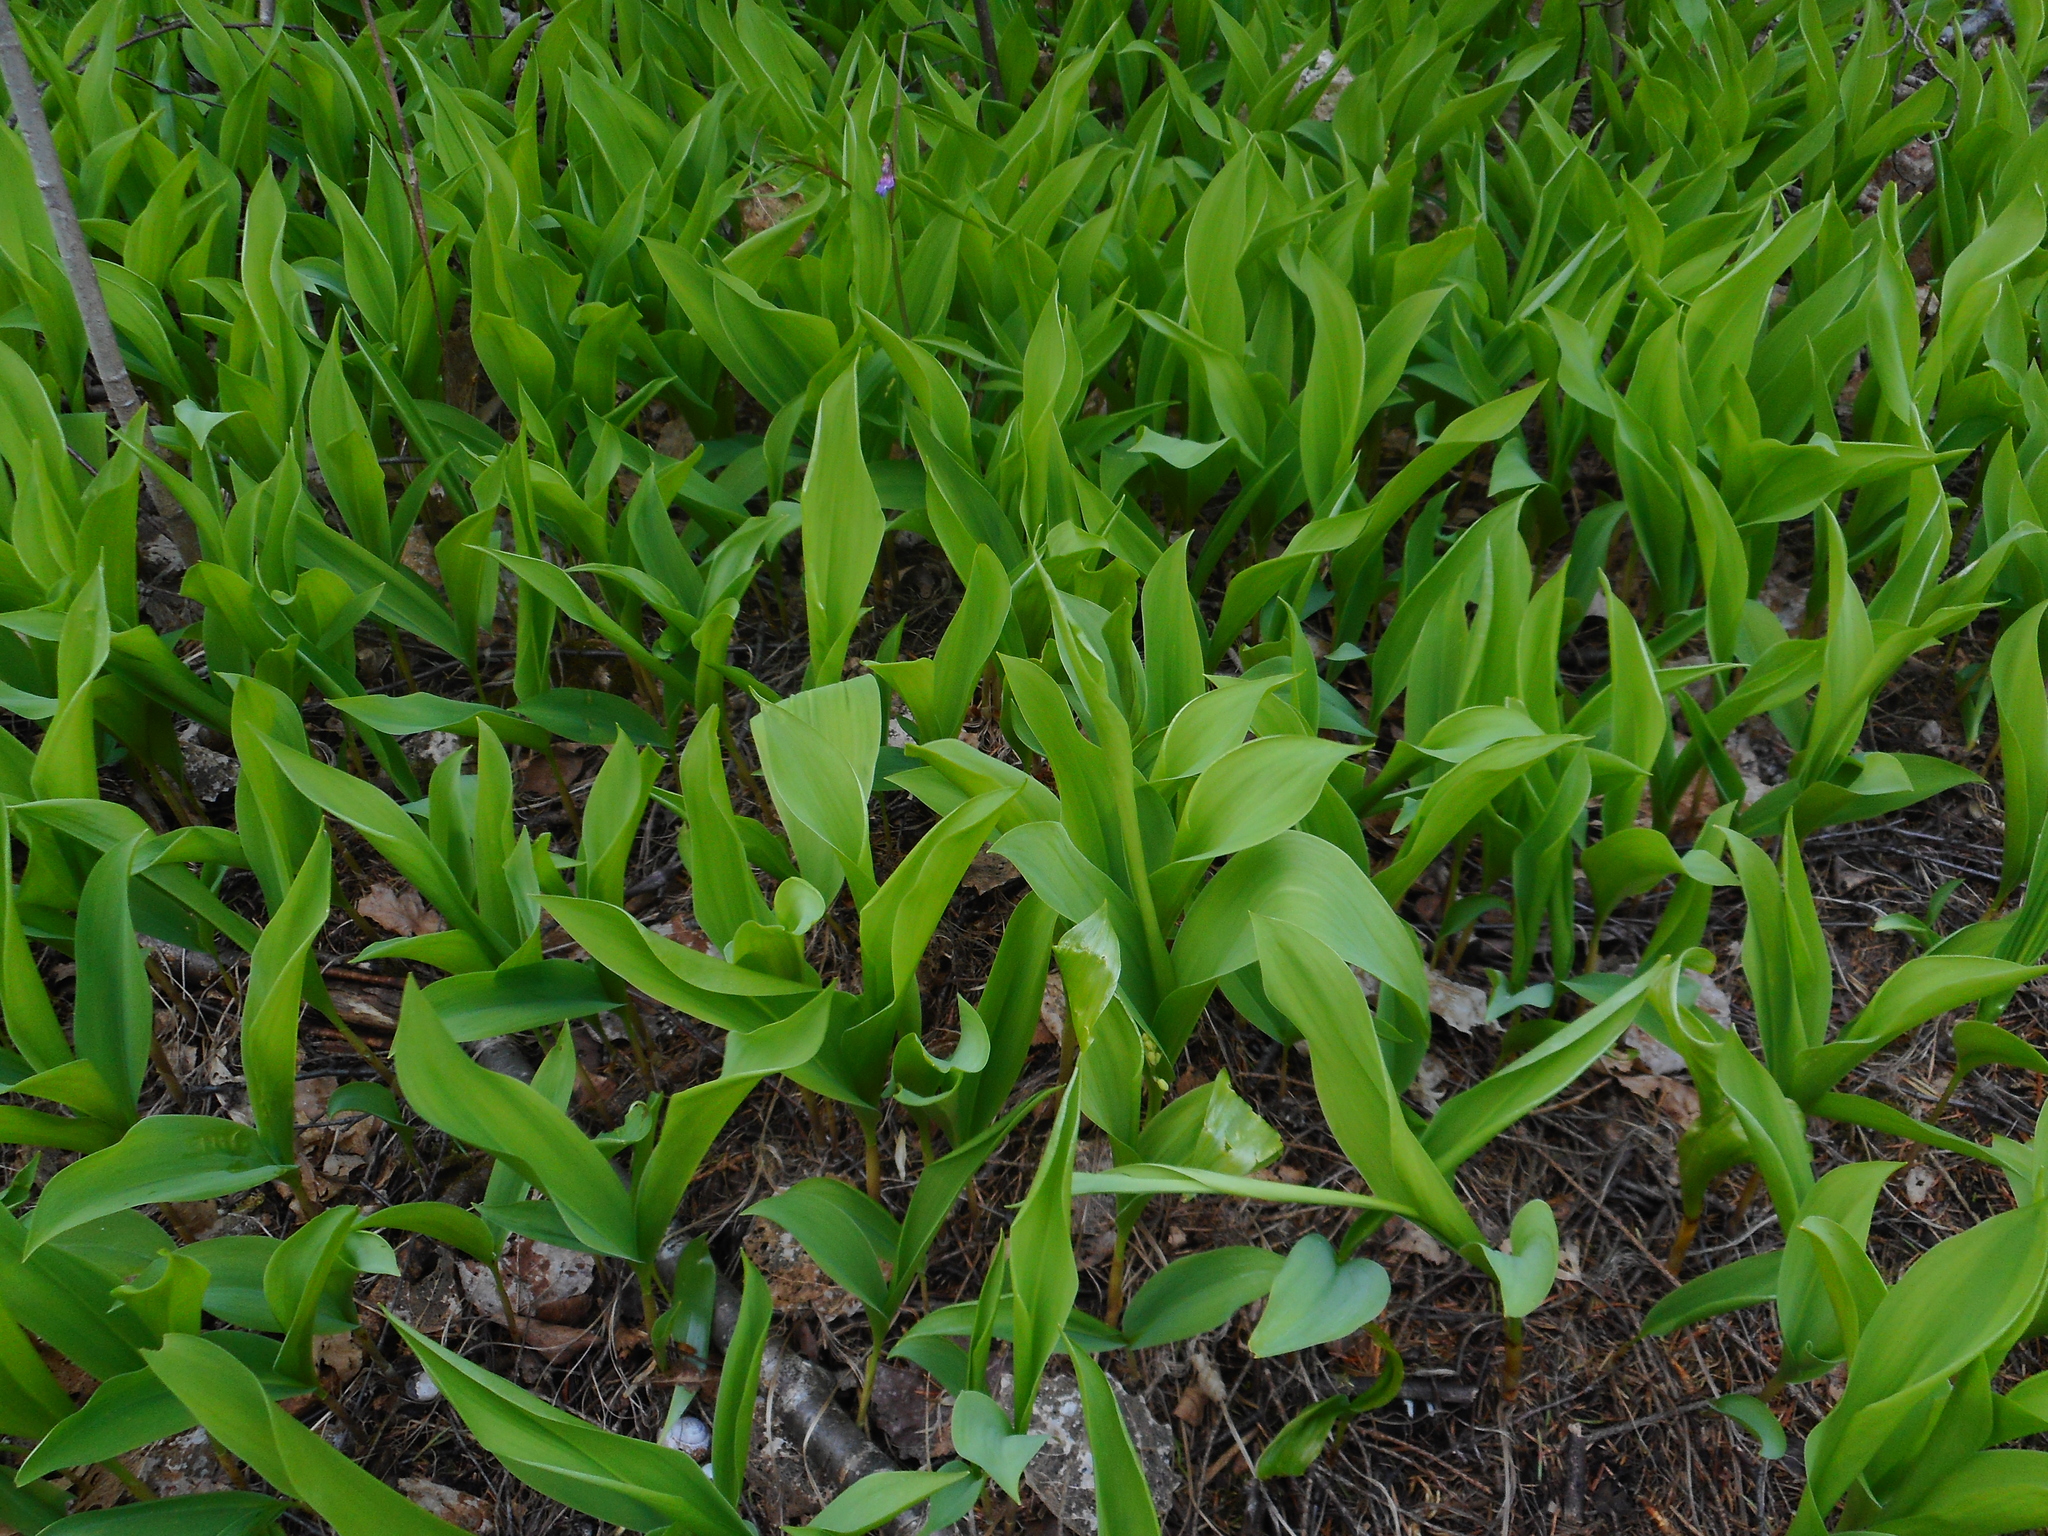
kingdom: Plantae
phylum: Tracheophyta
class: Liliopsida
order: Asparagales
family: Asparagaceae
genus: Convallaria
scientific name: Convallaria majalis
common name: Lily-of-the-valley
